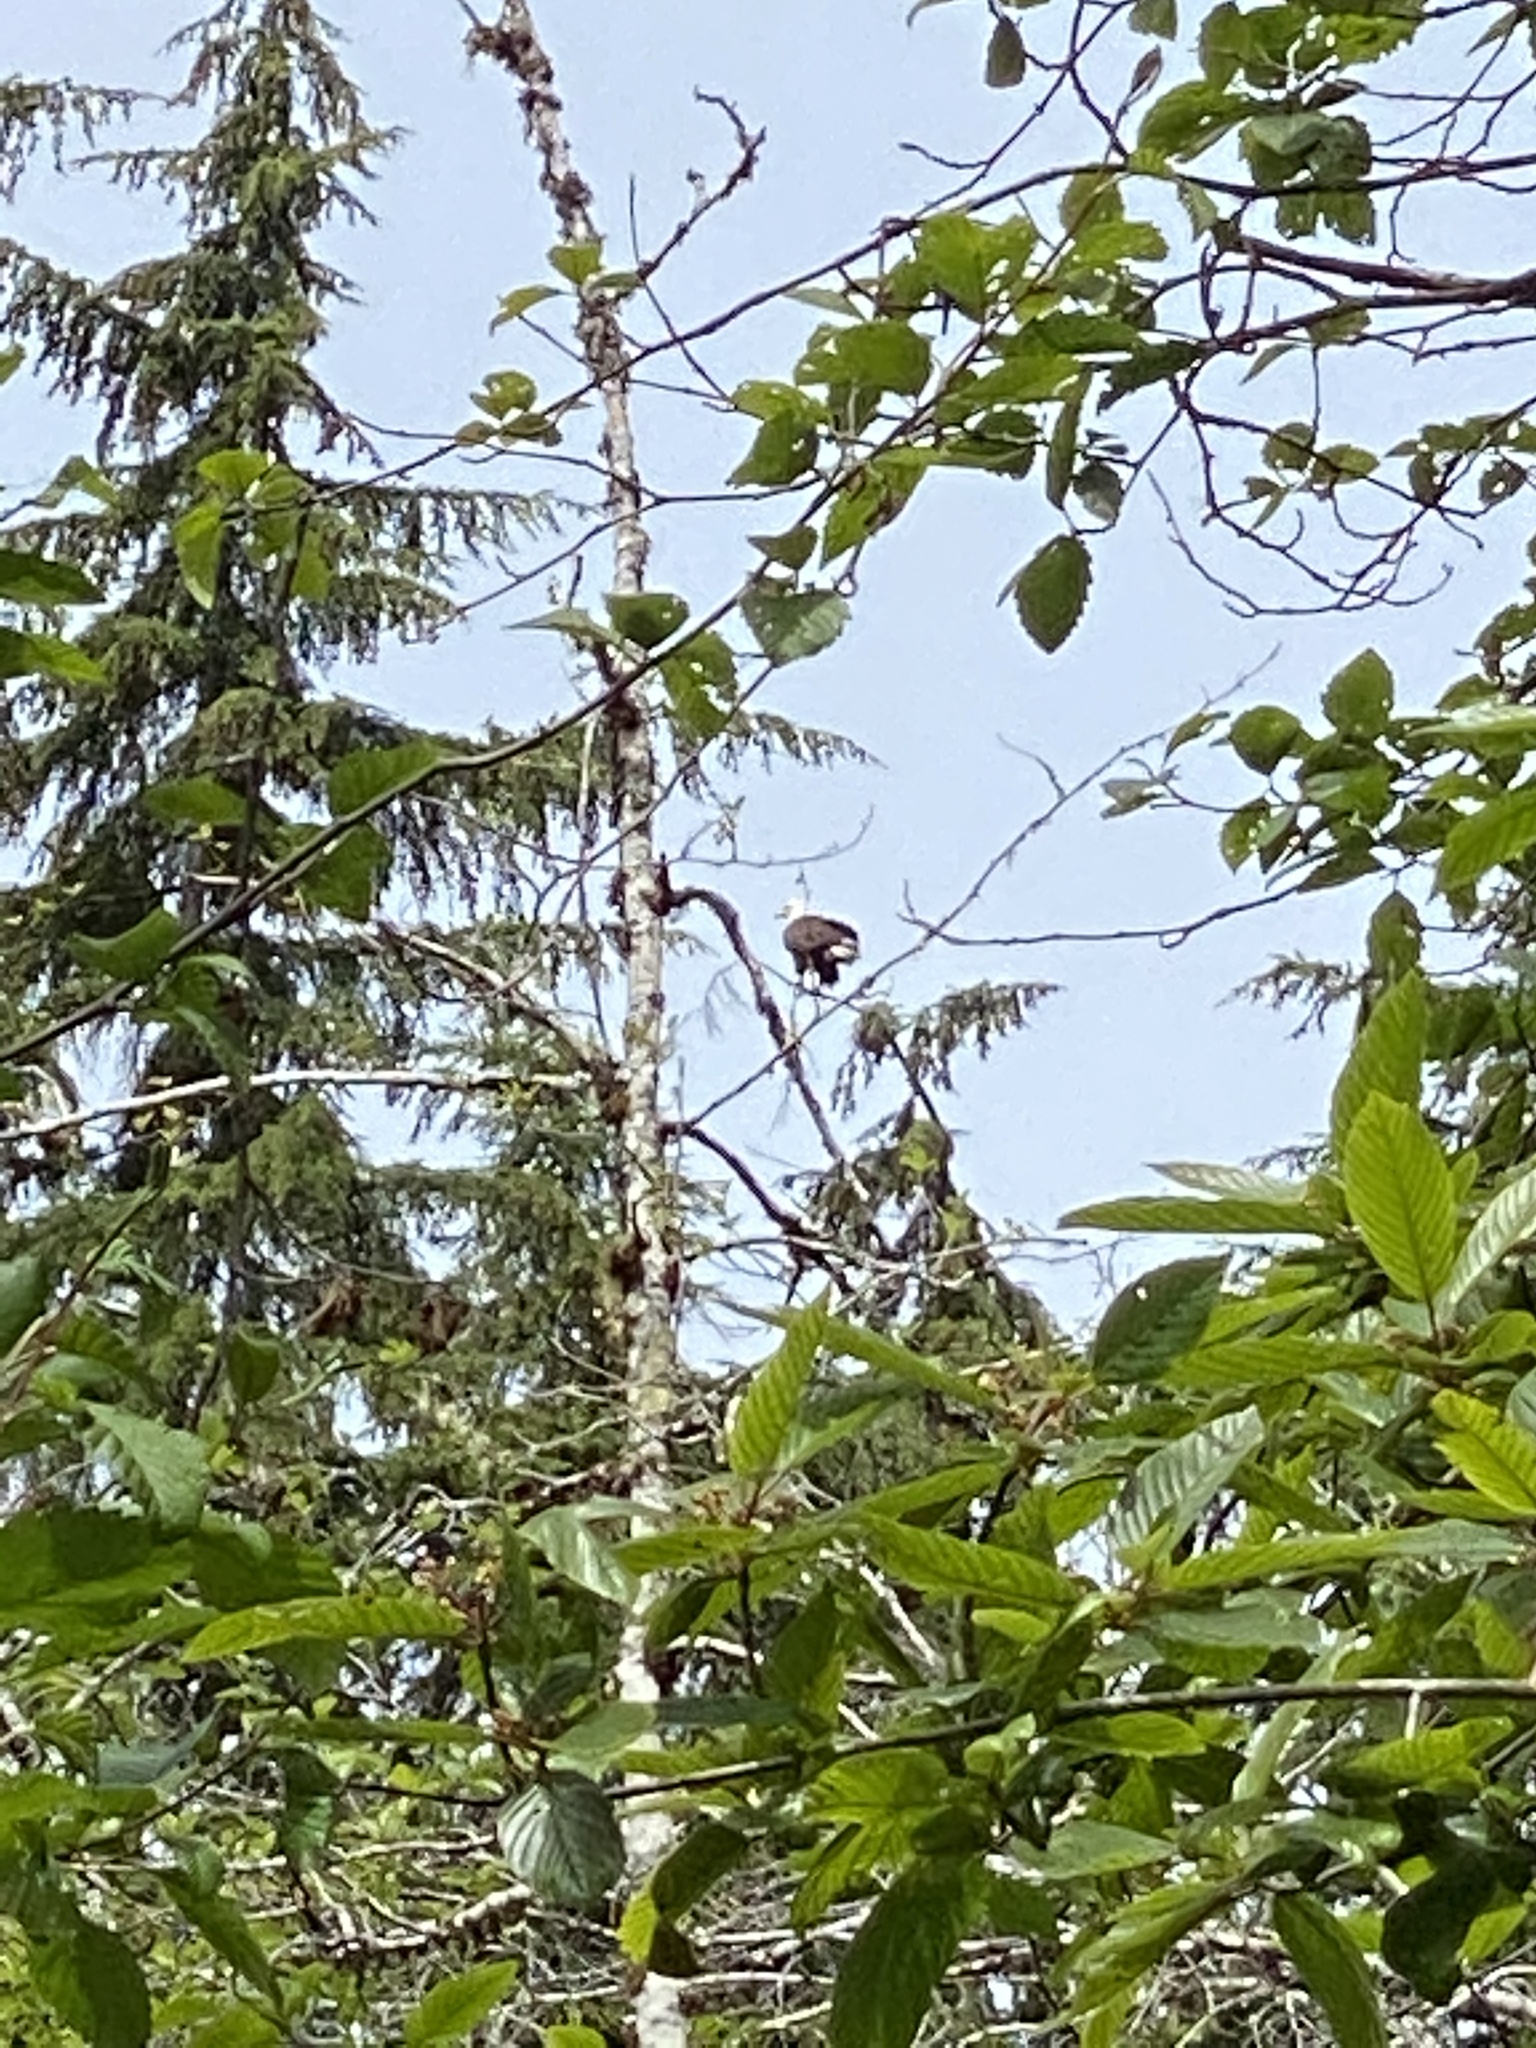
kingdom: Animalia
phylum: Chordata
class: Aves
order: Accipitriformes
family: Accipitridae
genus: Haliaeetus
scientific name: Haliaeetus leucocephalus
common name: Bald eagle
